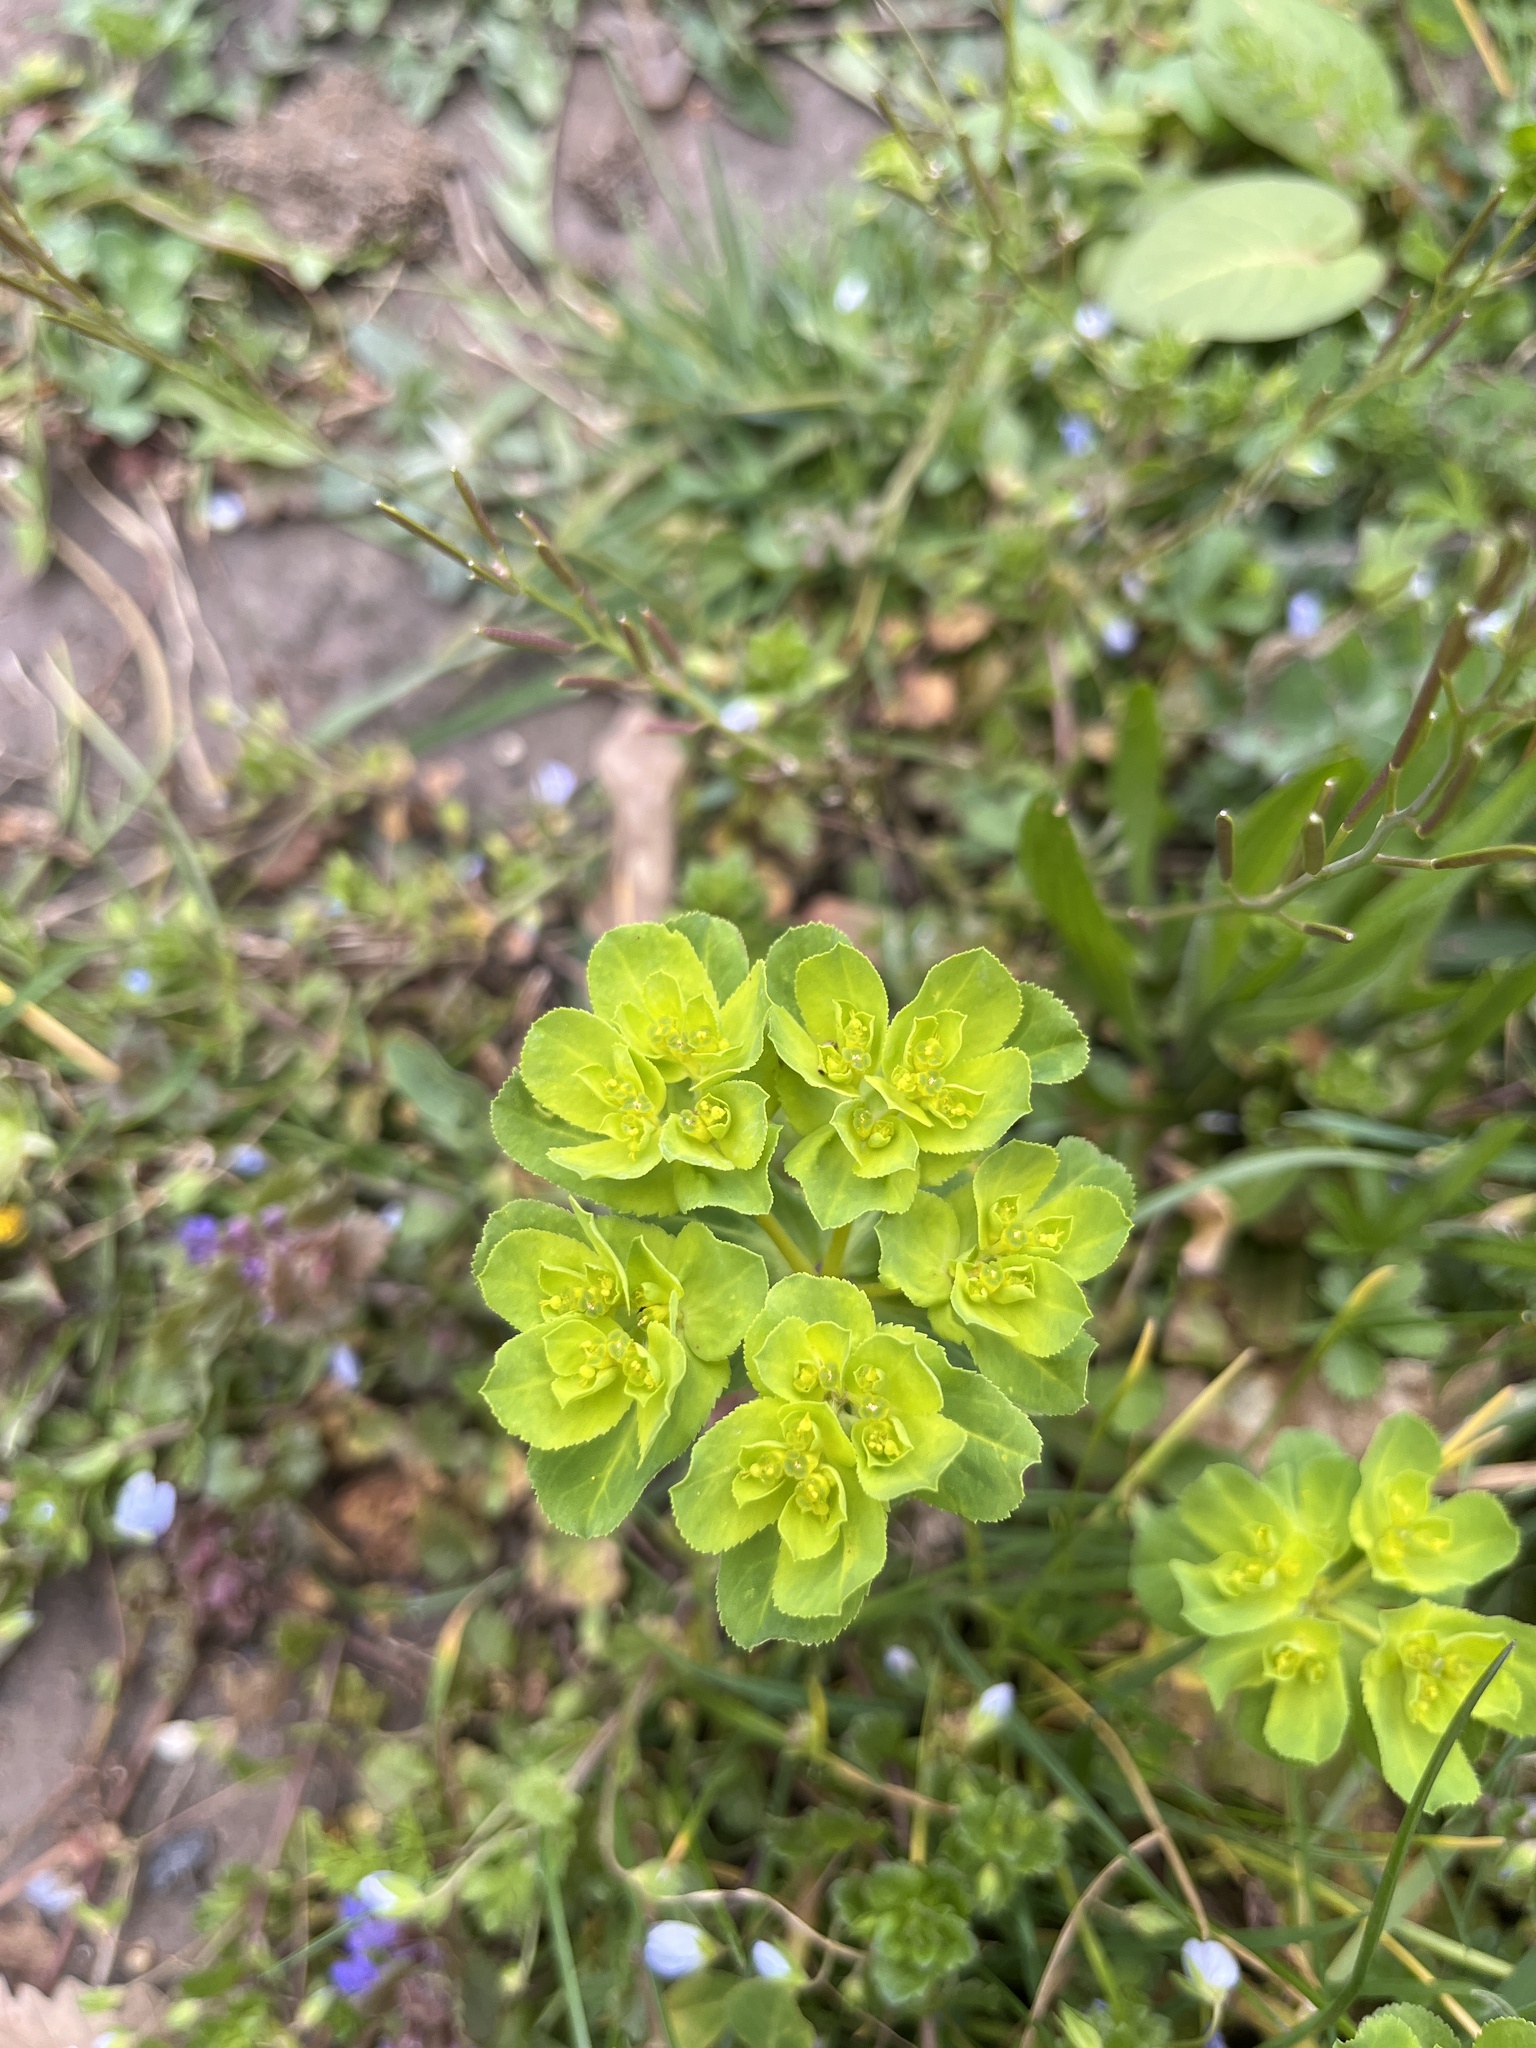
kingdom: Plantae
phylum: Tracheophyta
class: Magnoliopsida
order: Malpighiales
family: Euphorbiaceae
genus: Euphorbia
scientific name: Euphorbia helioscopia
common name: Sun spurge
